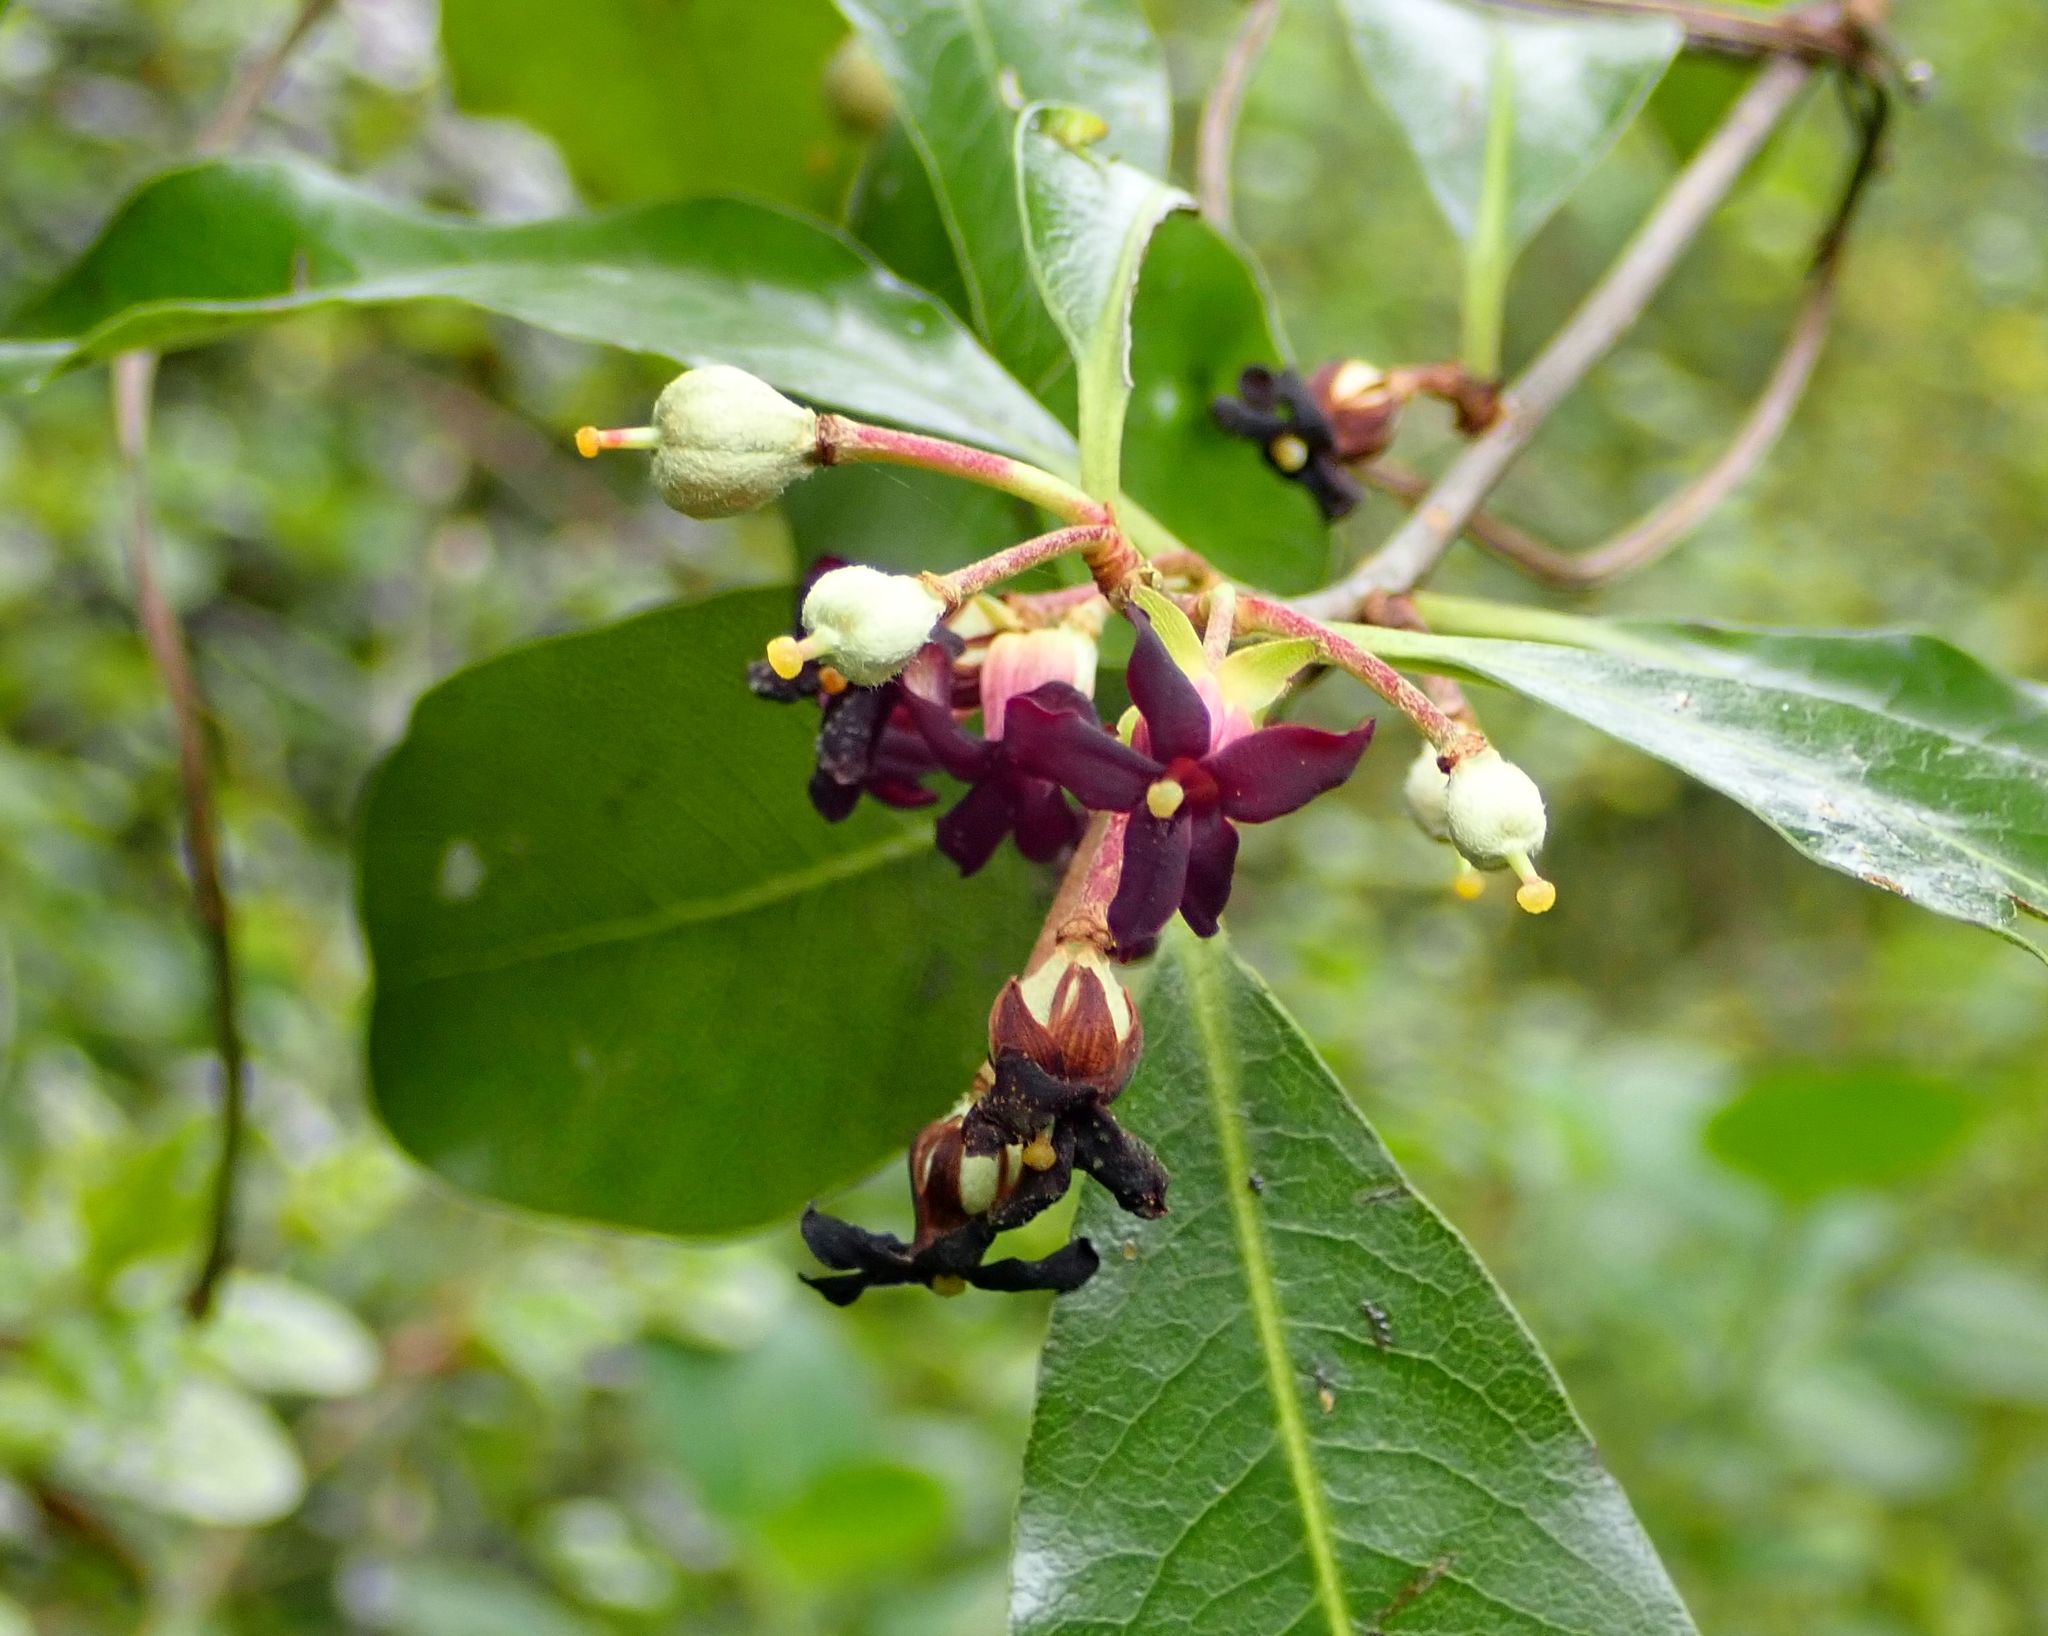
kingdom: Plantae
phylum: Tracheophyta
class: Magnoliopsida
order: Apiales
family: Pittosporaceae
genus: Pittosporum
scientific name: Pittosporum tenuifolium
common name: Kohuhu
